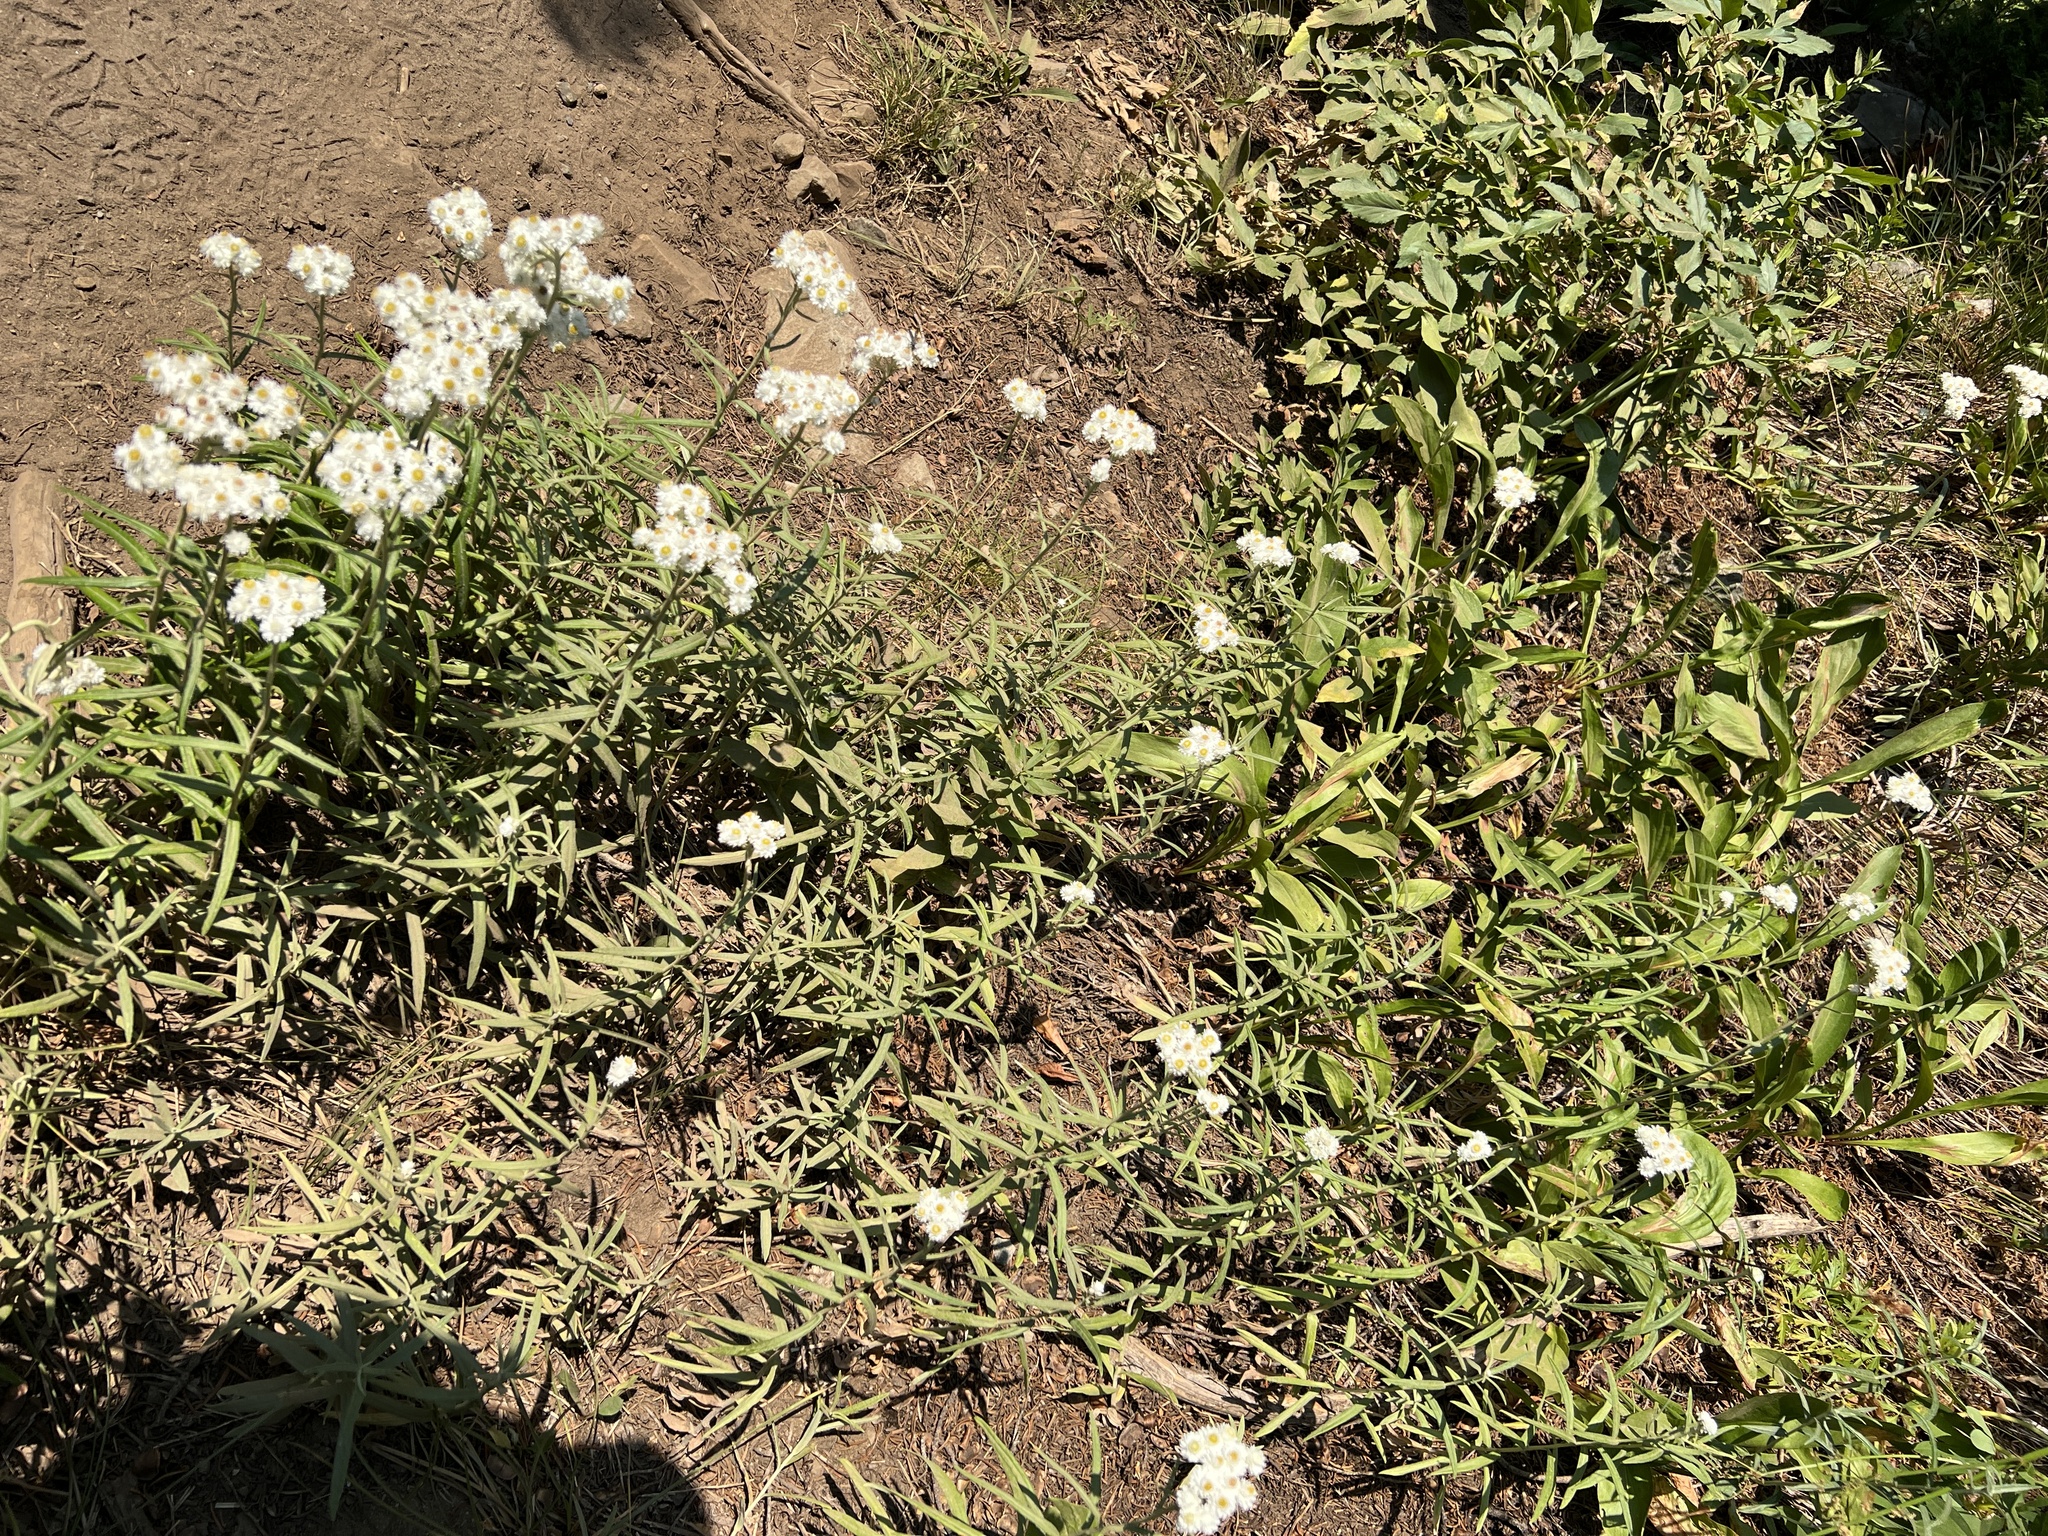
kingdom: Plantae
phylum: Tracheophyta
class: Magnoliopsida
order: Asterales
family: Asteraceae
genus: Anaphalis
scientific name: Anaphalis margaritacea
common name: Pearly everlasting
